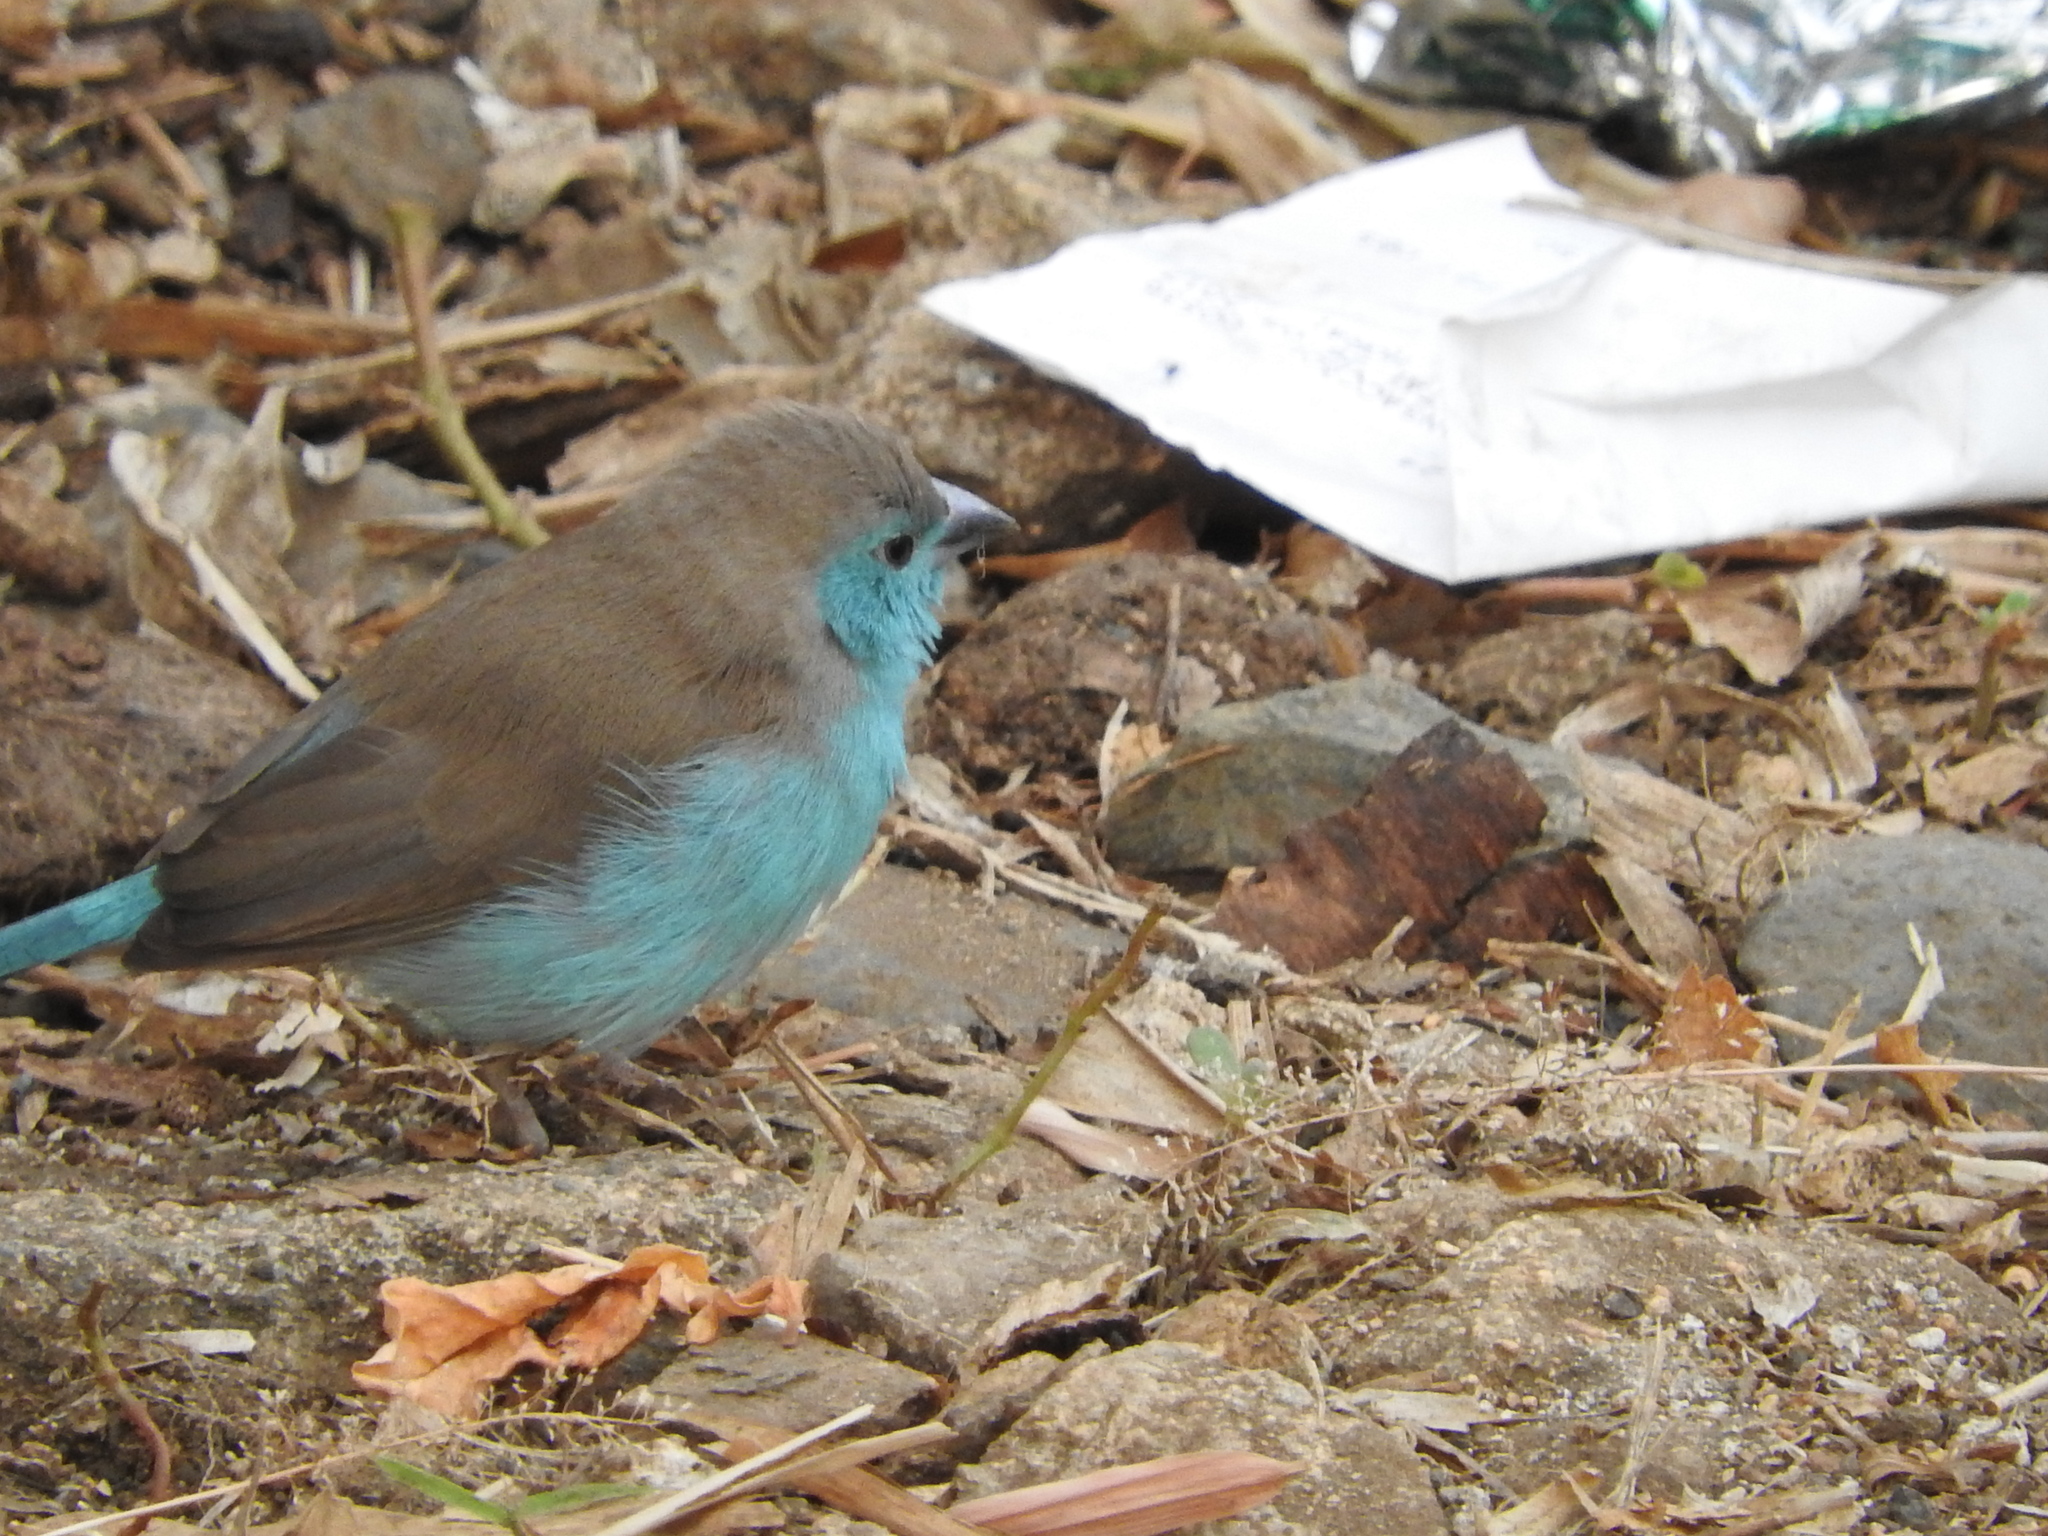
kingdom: Animalia
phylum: Chordata
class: Aves
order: Passeriformes
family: Estrildidae
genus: Uraeginthus
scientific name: Uraeginthus angolensis
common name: Blue waxbill
